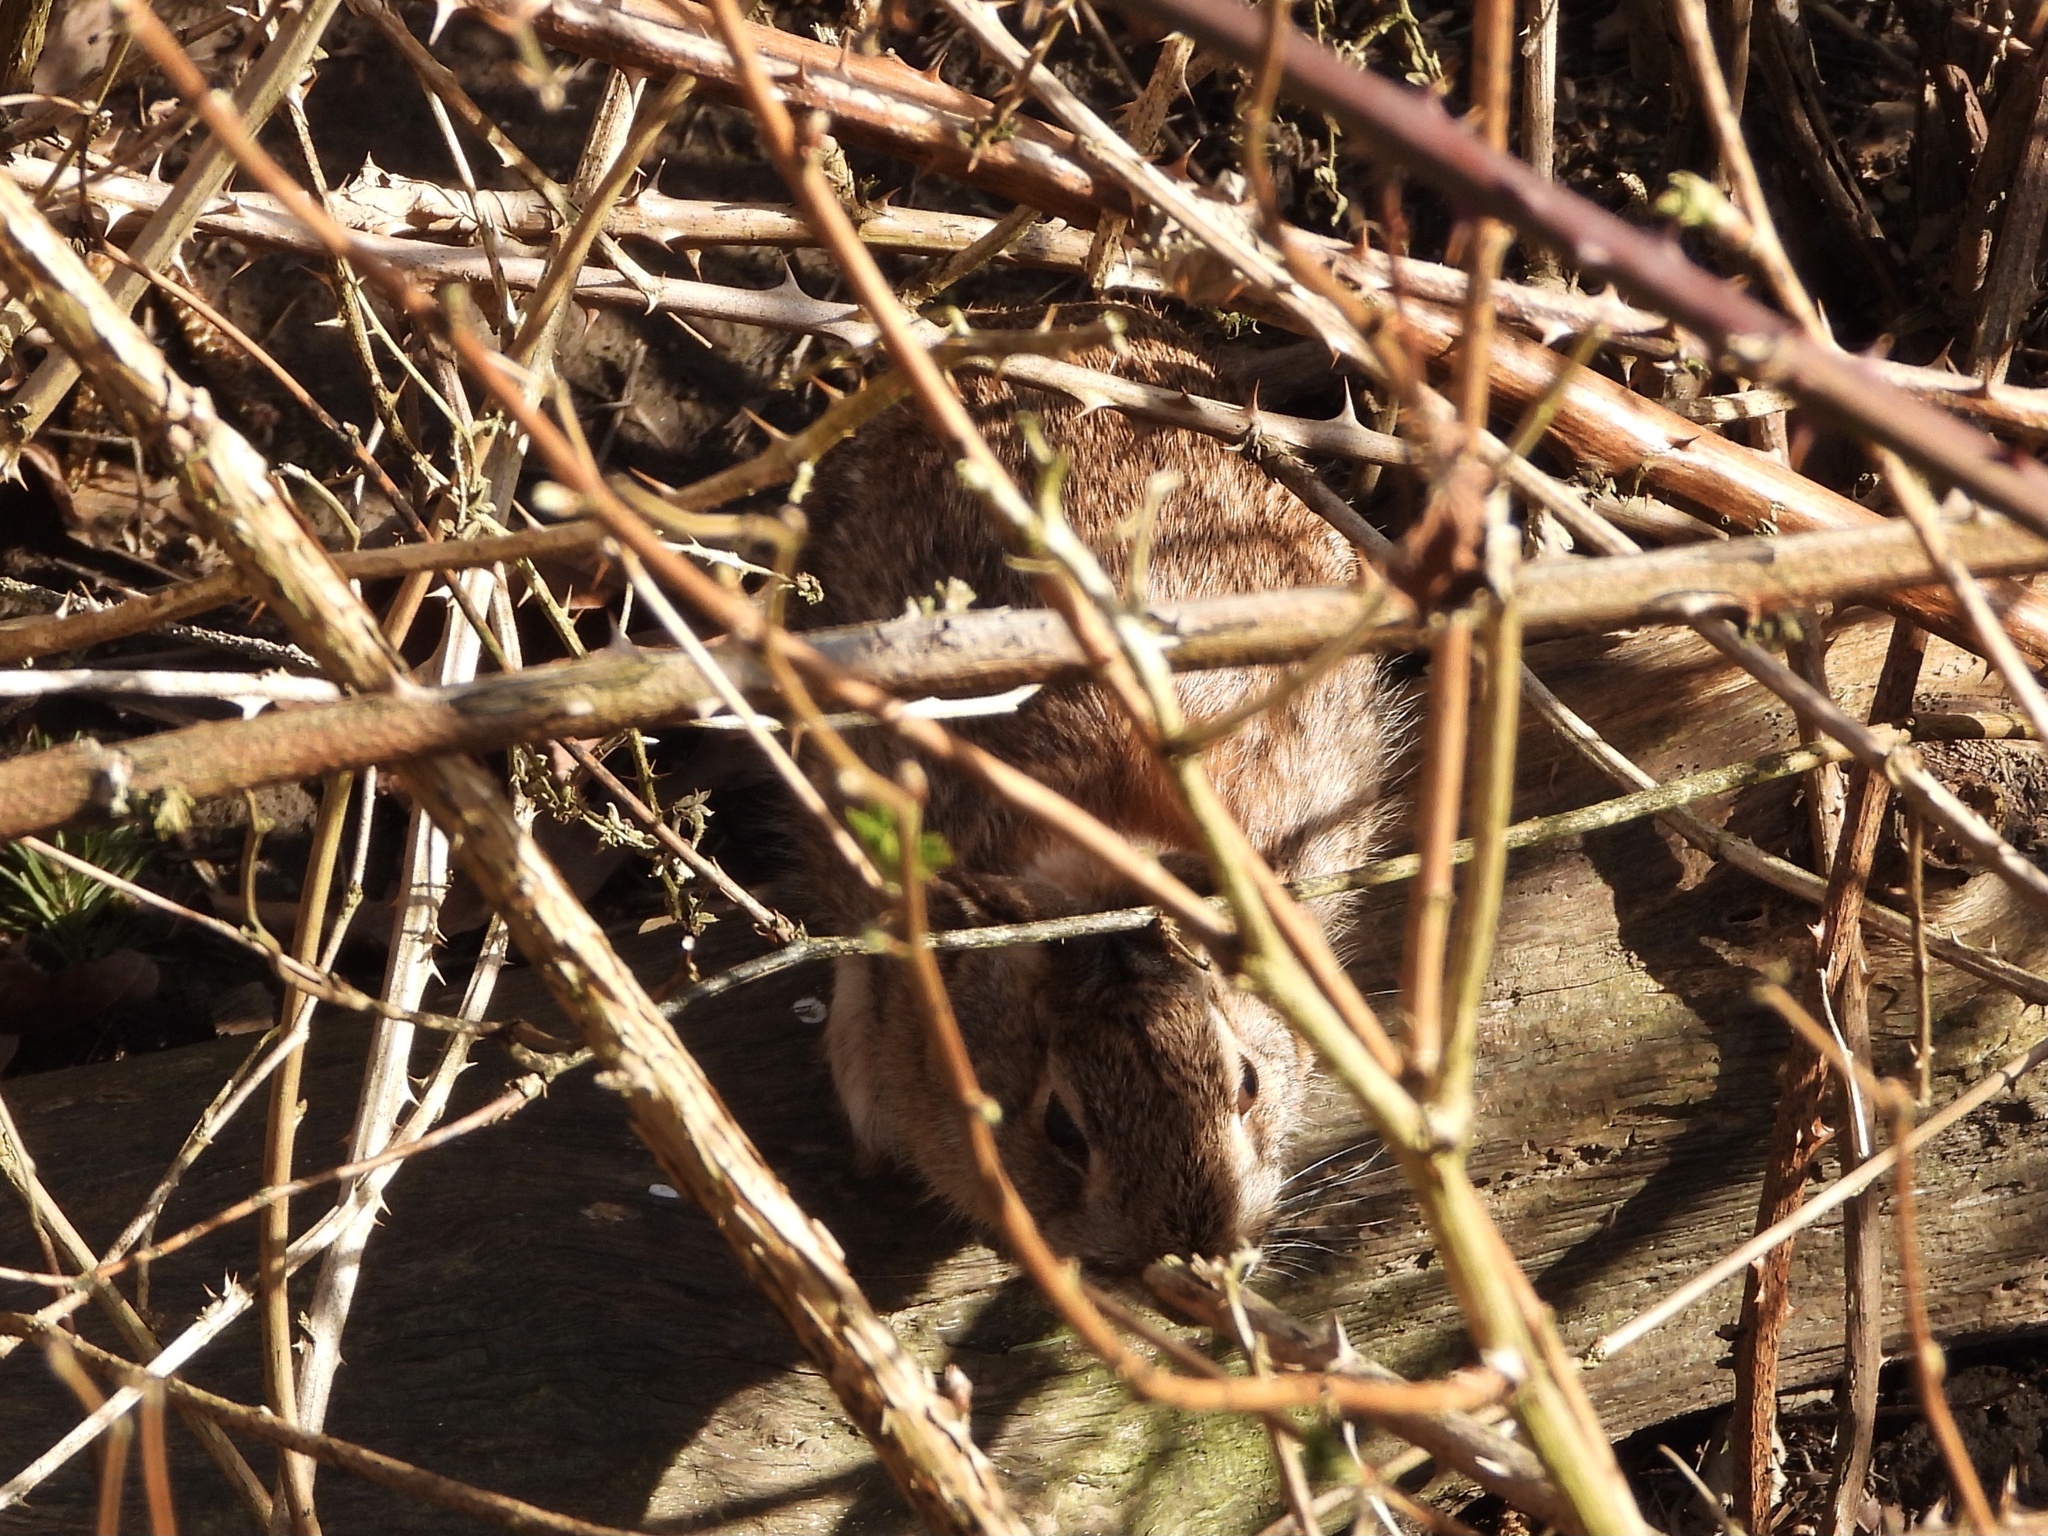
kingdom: Animalia
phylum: Chordata
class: Mammalia
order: Lagomorpha
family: Leporidae
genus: Sylvilagus
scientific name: Sylvilagus floridanus
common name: Eastern cottontail
